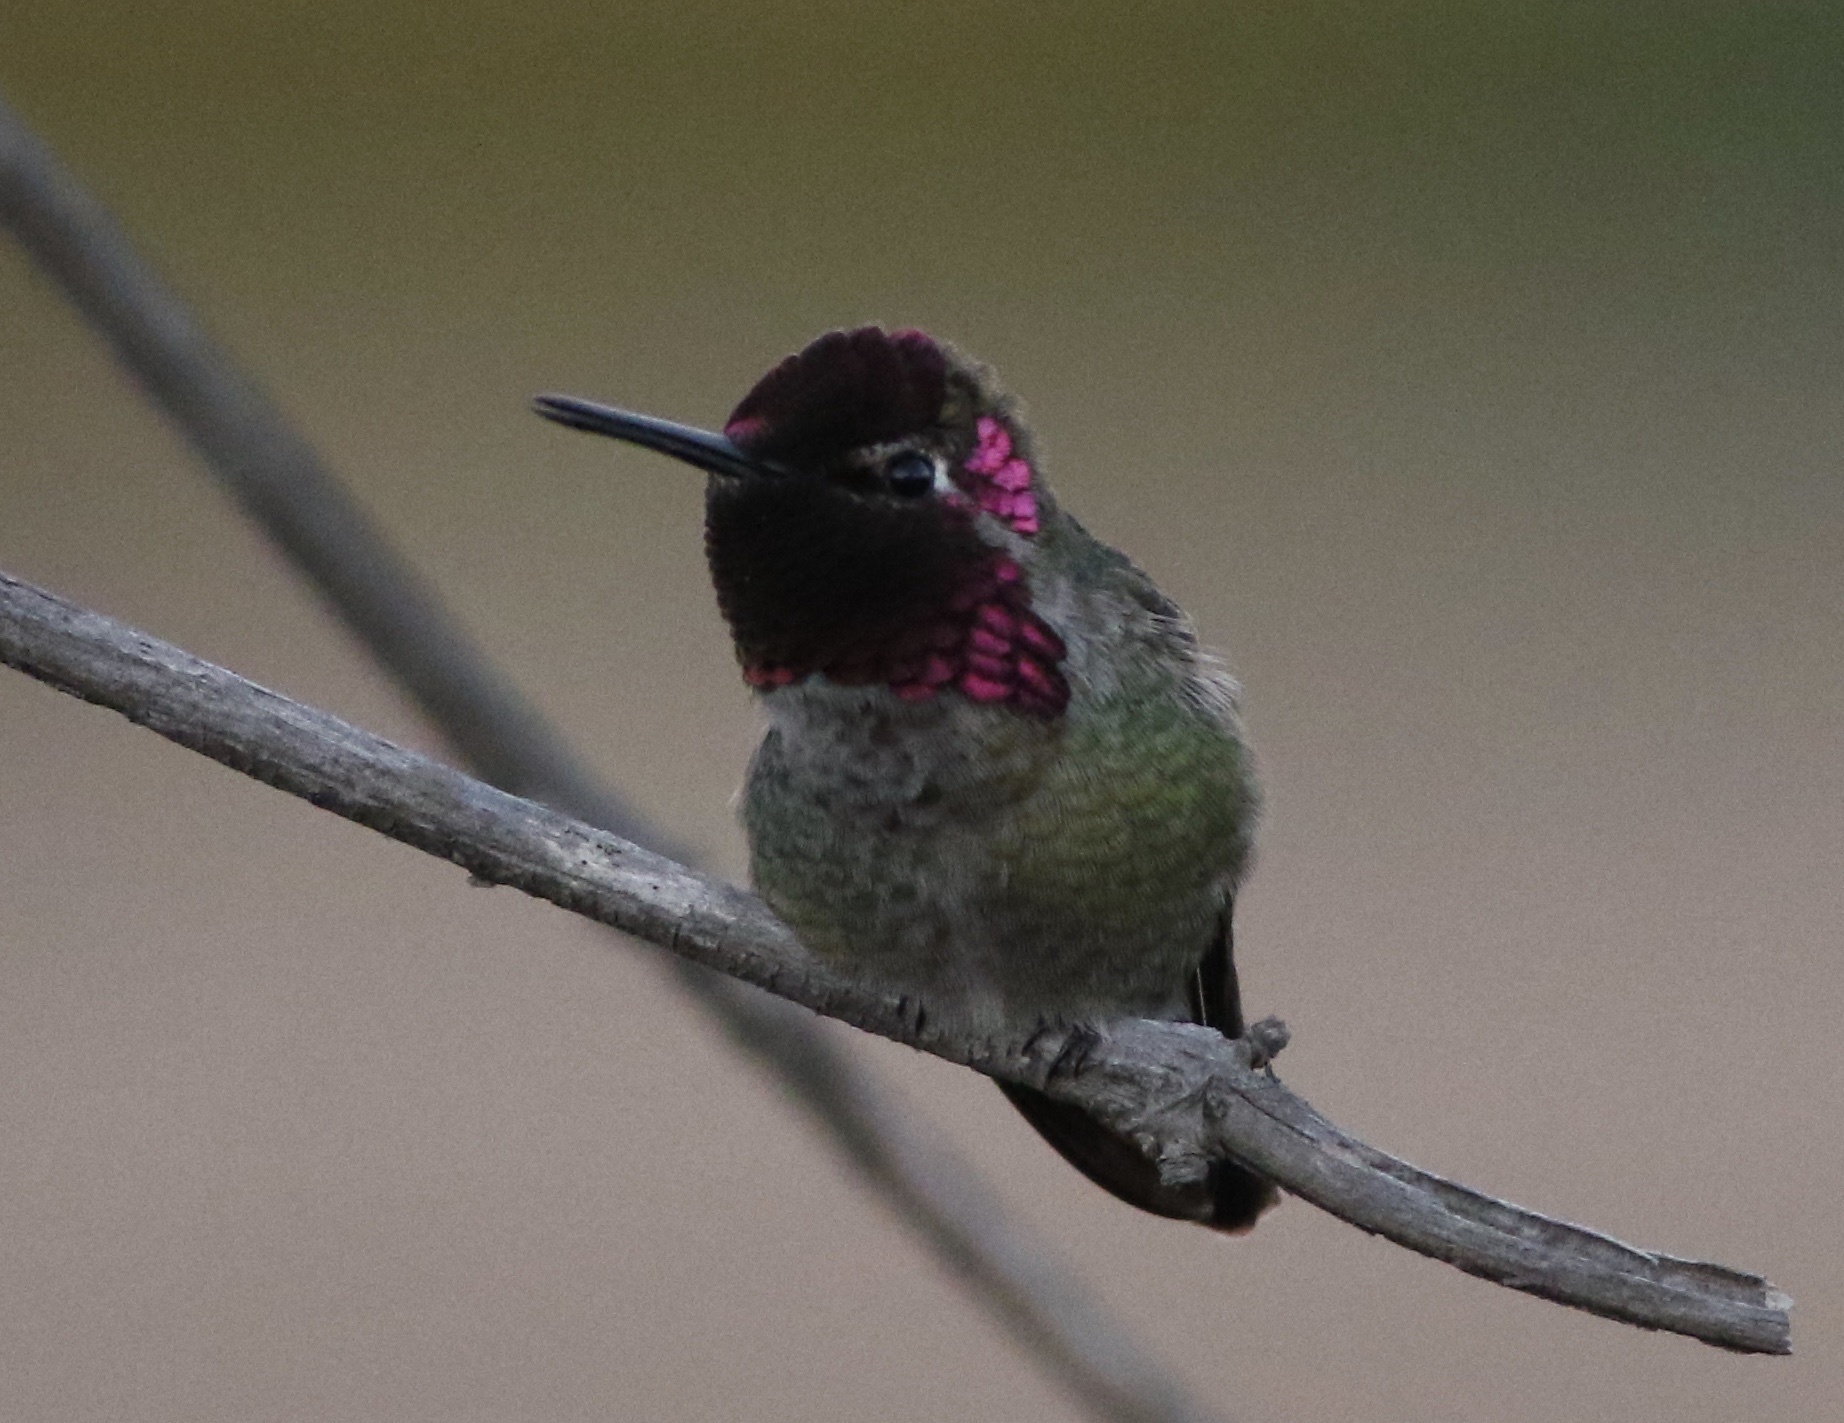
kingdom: Animalia
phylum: Chordata
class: Aves
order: Apodiformes
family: Trochilidae
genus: Calypte
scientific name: Calypte anna
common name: Anna's hummingbird
